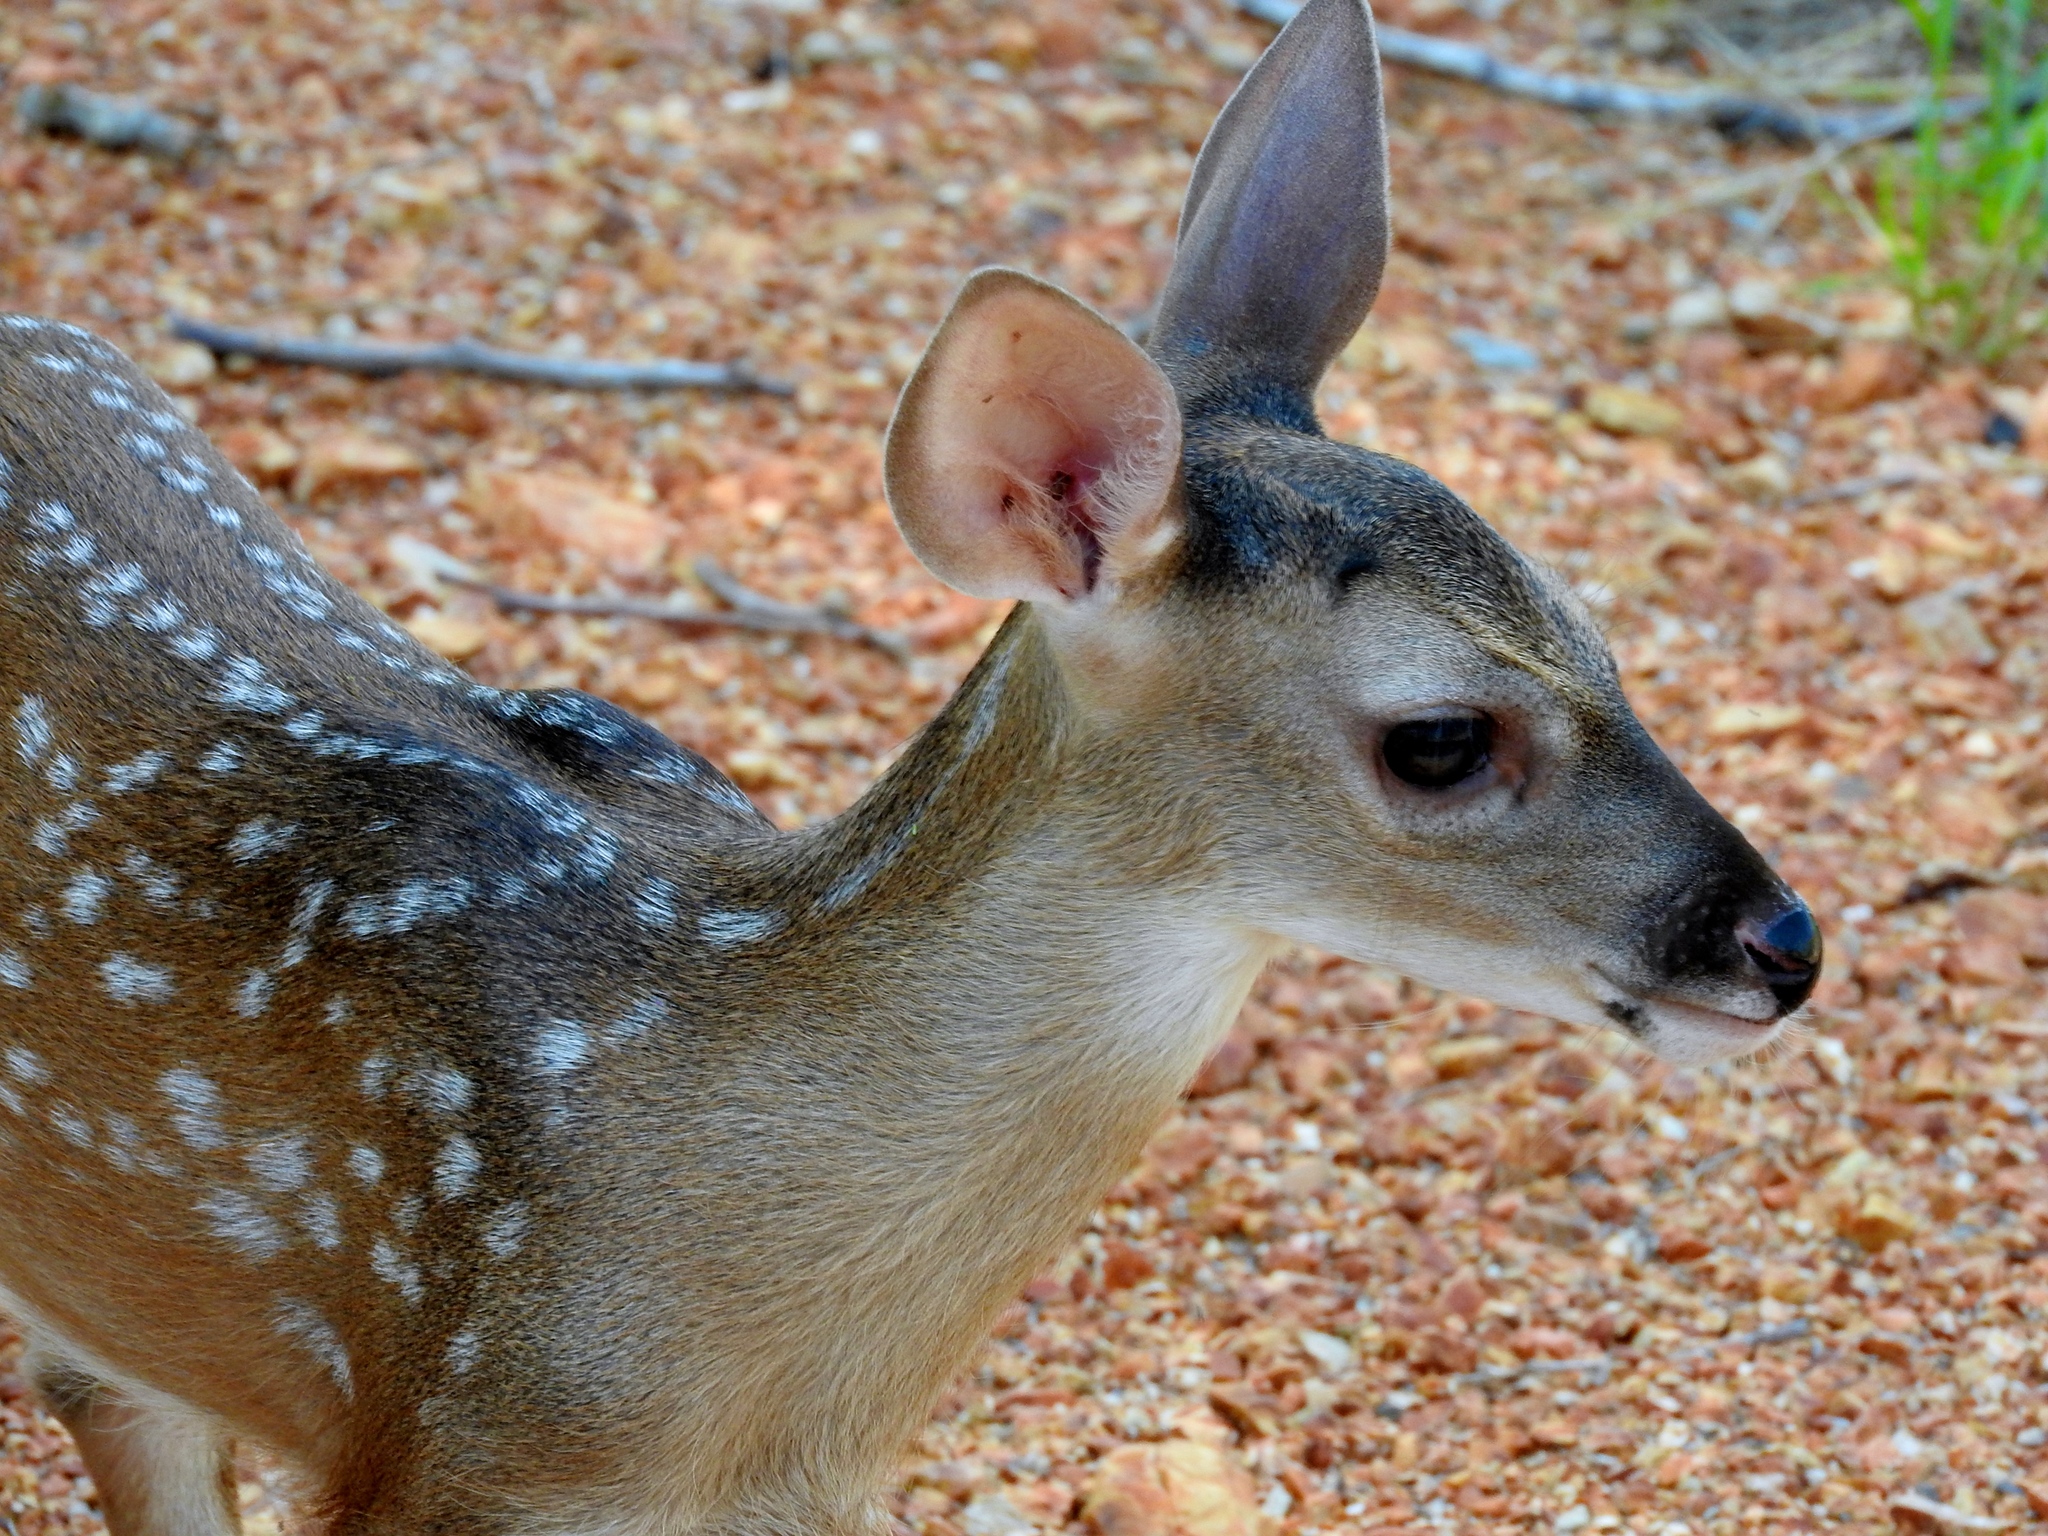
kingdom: Animalia
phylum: Chordata
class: Mammalia
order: Artiodactyla
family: Cervidae
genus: Odocoileus
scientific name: Odocoileus virginianus
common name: White-tailed deer
